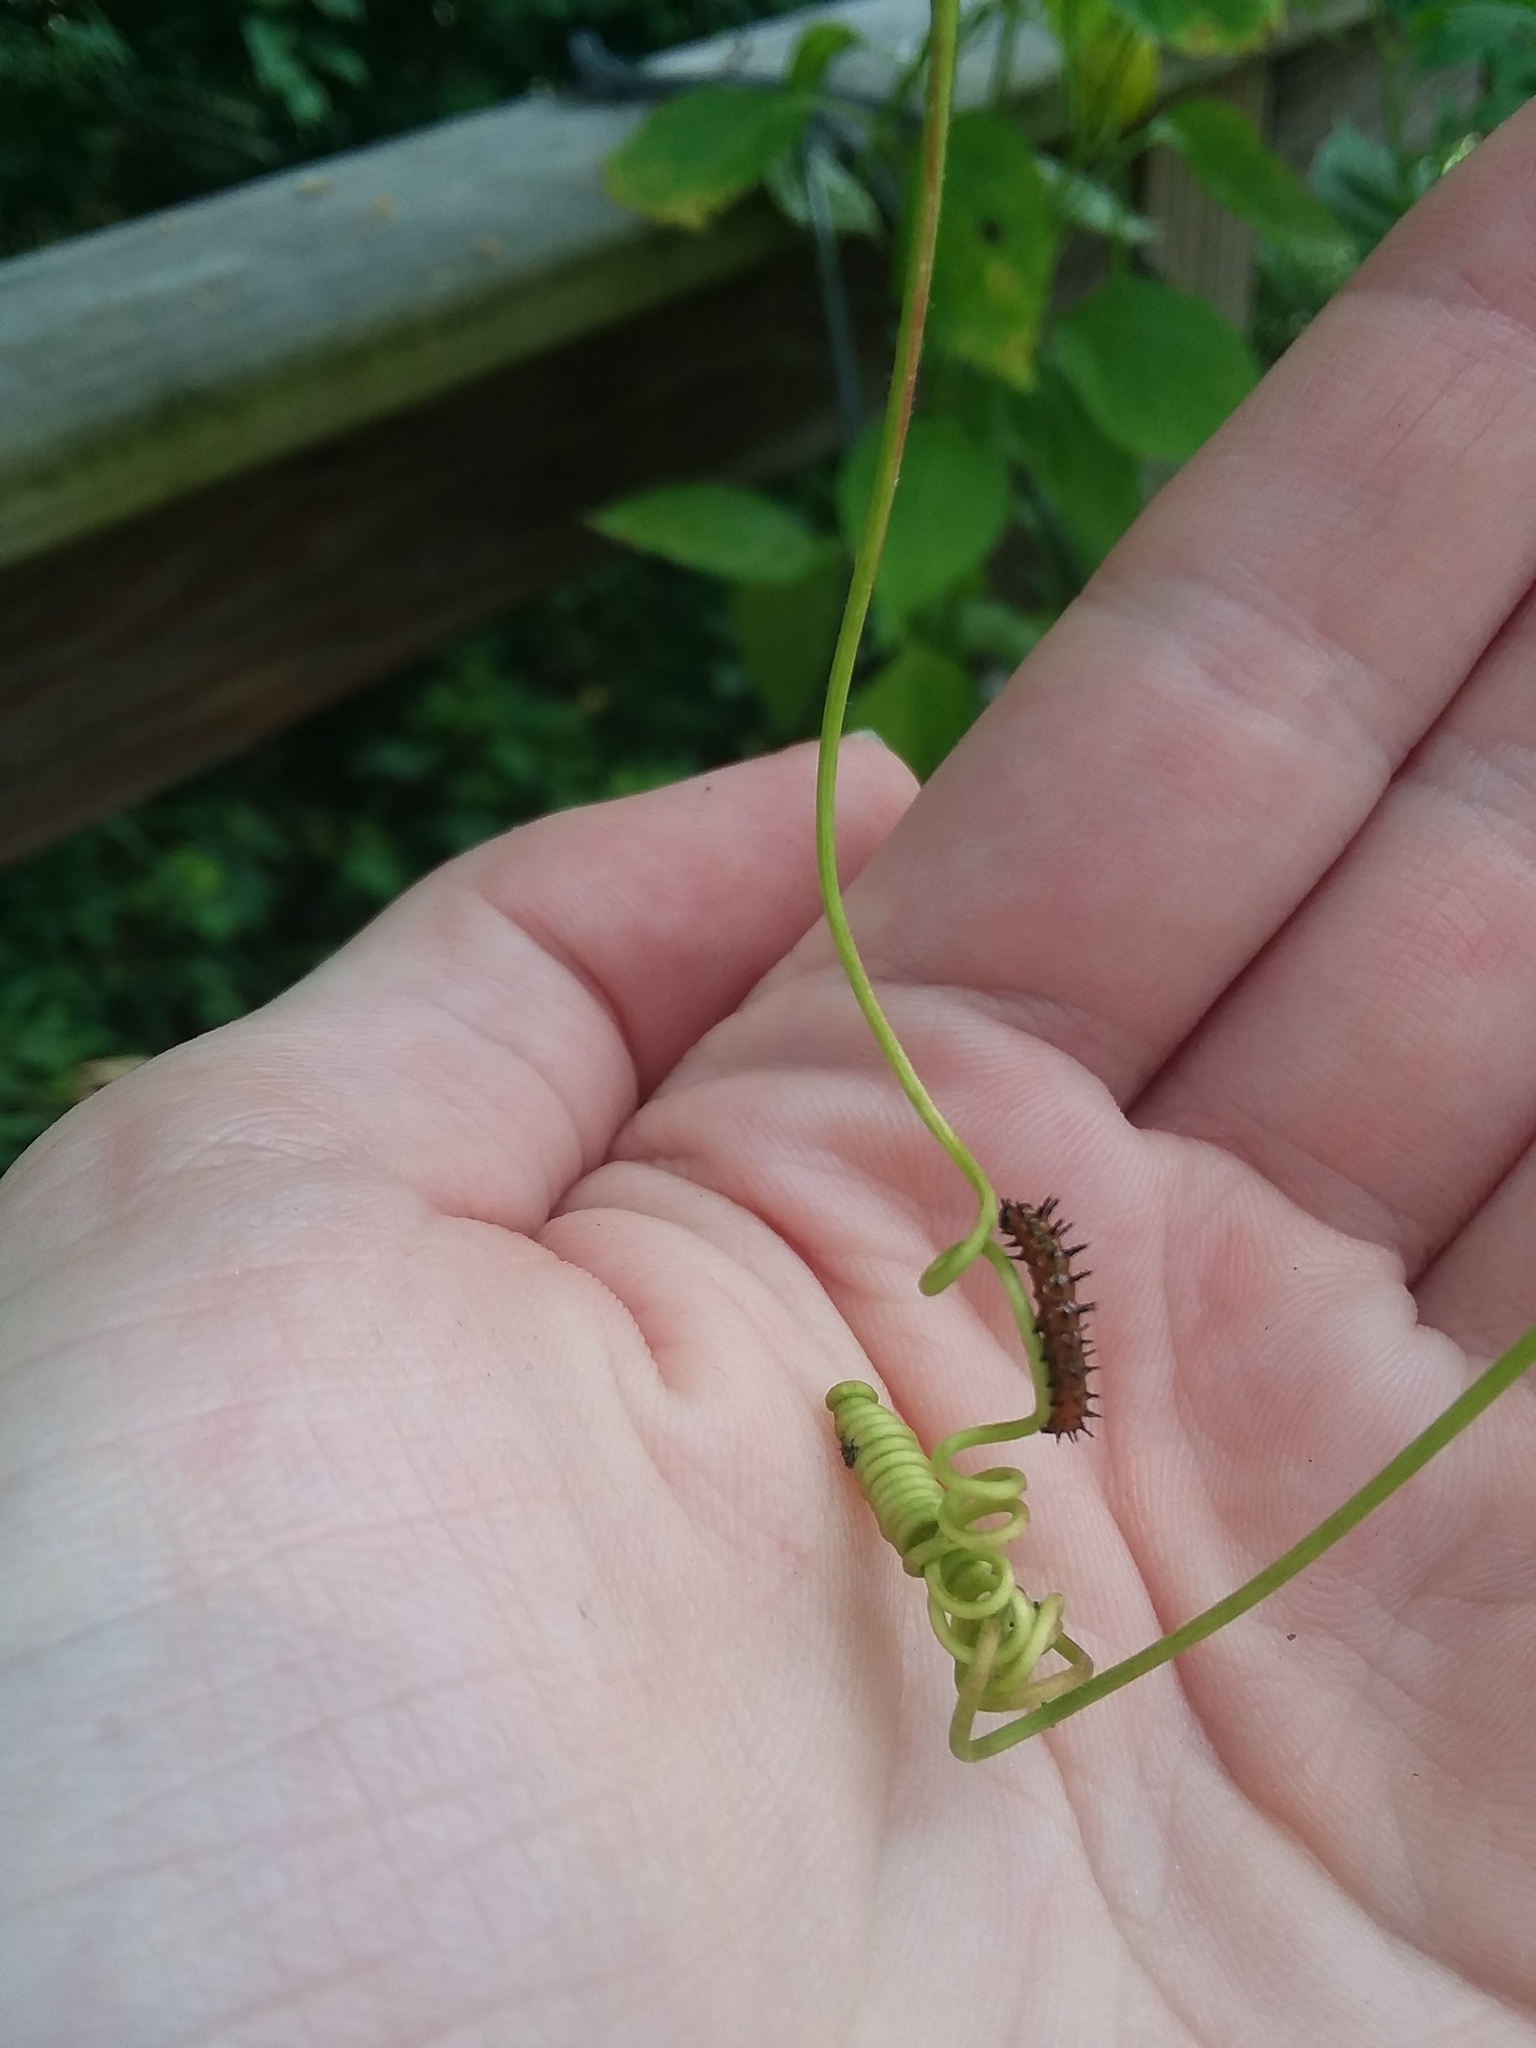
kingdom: Animalia
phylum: Arthropoda
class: Insecta
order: Lepidoptera
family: Nymphalidae
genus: Dione
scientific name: Dione vanillae
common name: Gulf fritillary
